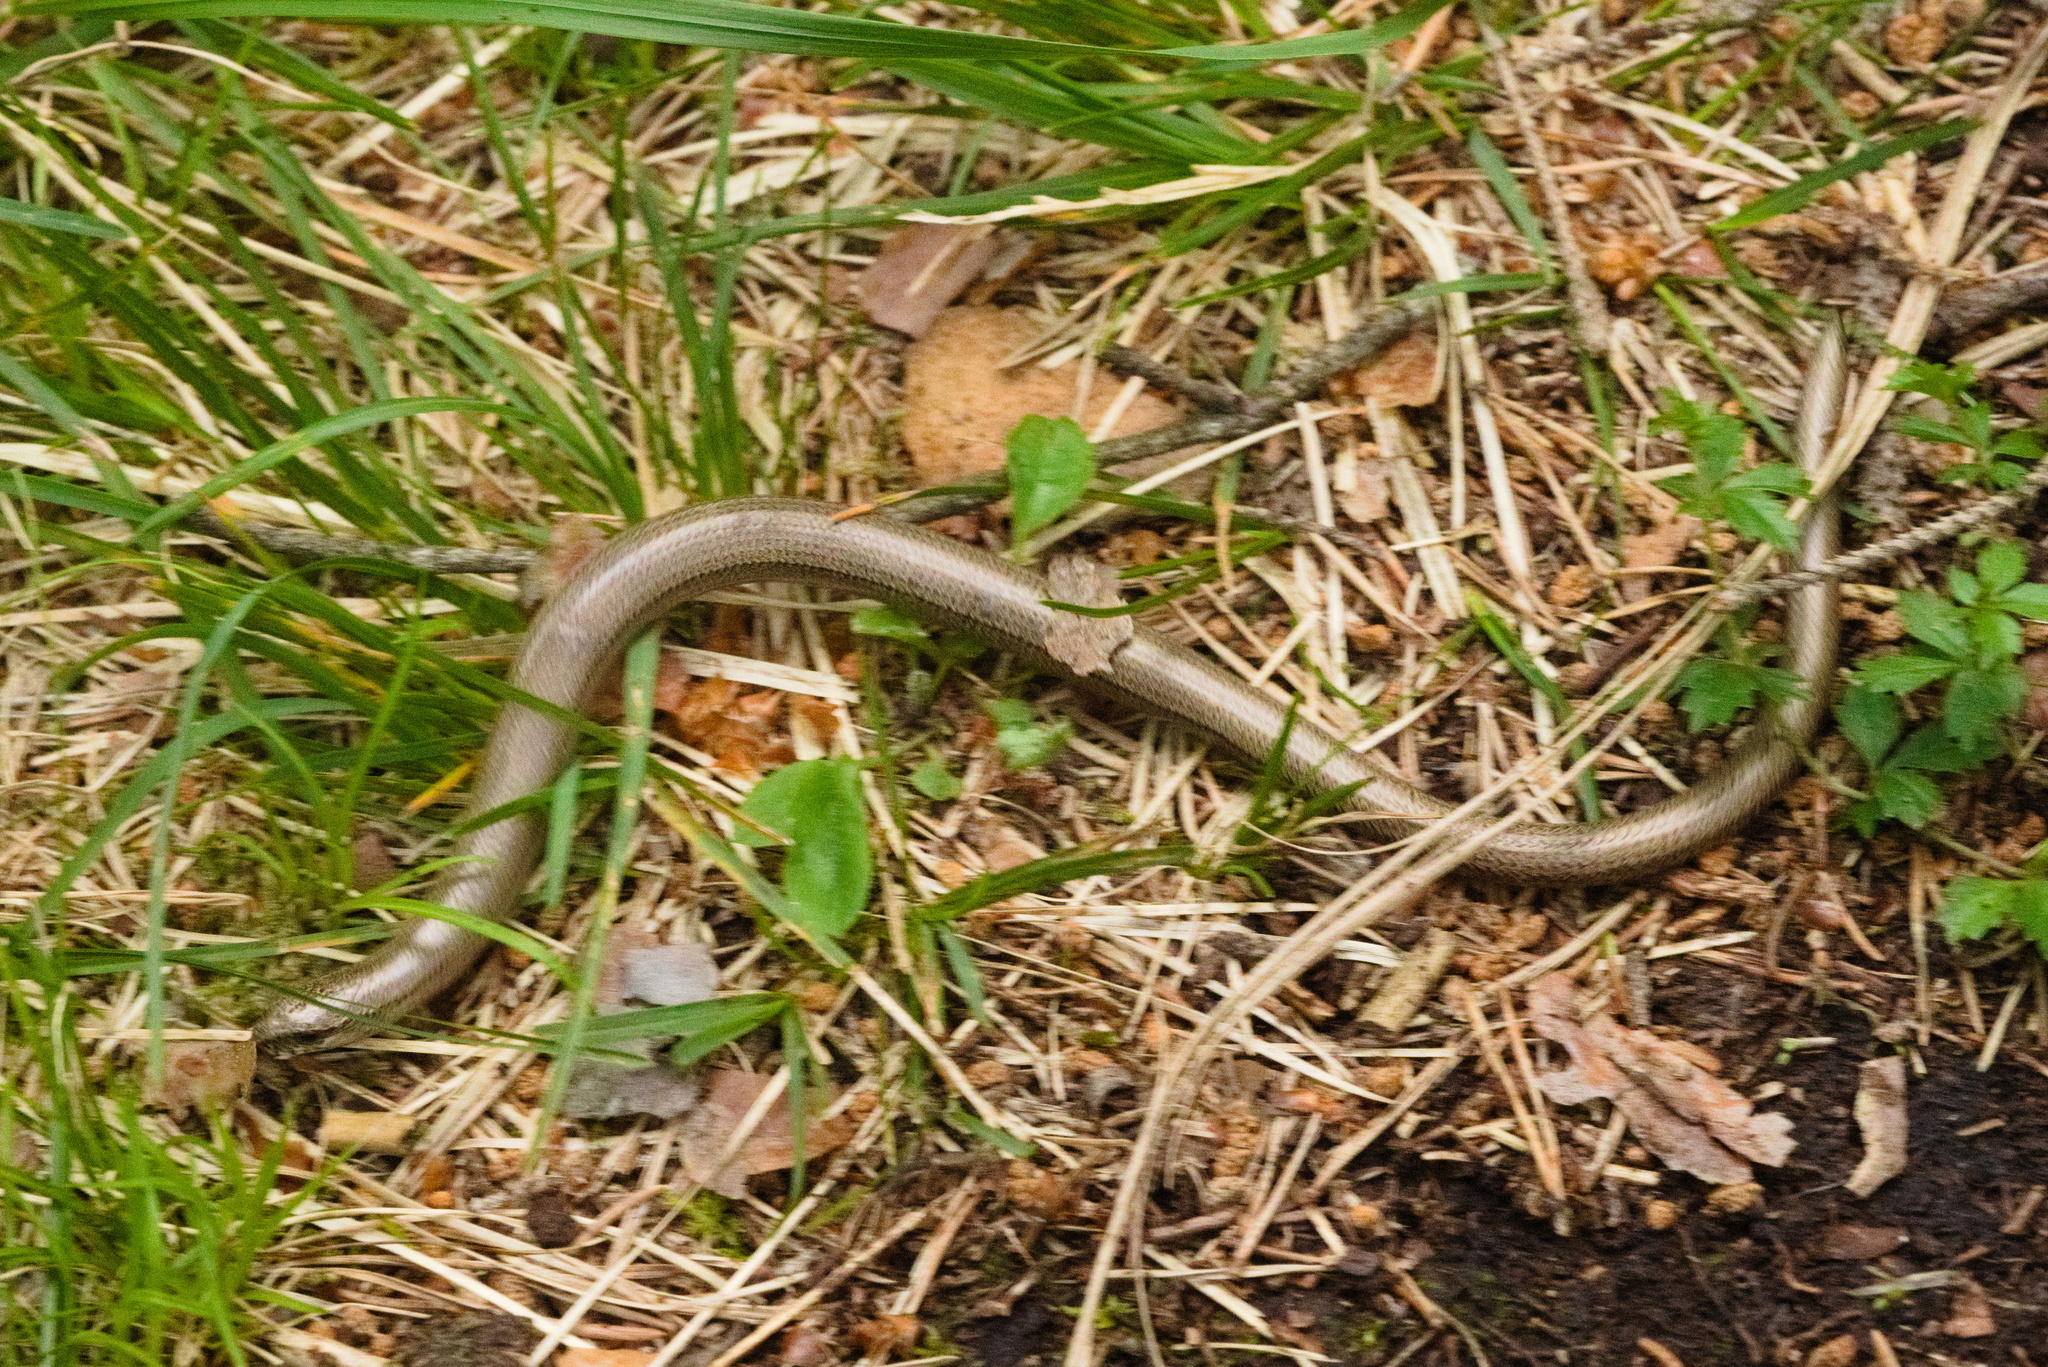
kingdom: Animalia
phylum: Chordata
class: Squamata
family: Anguidae
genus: Anguis
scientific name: Anguis fragilis
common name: Slow worm
